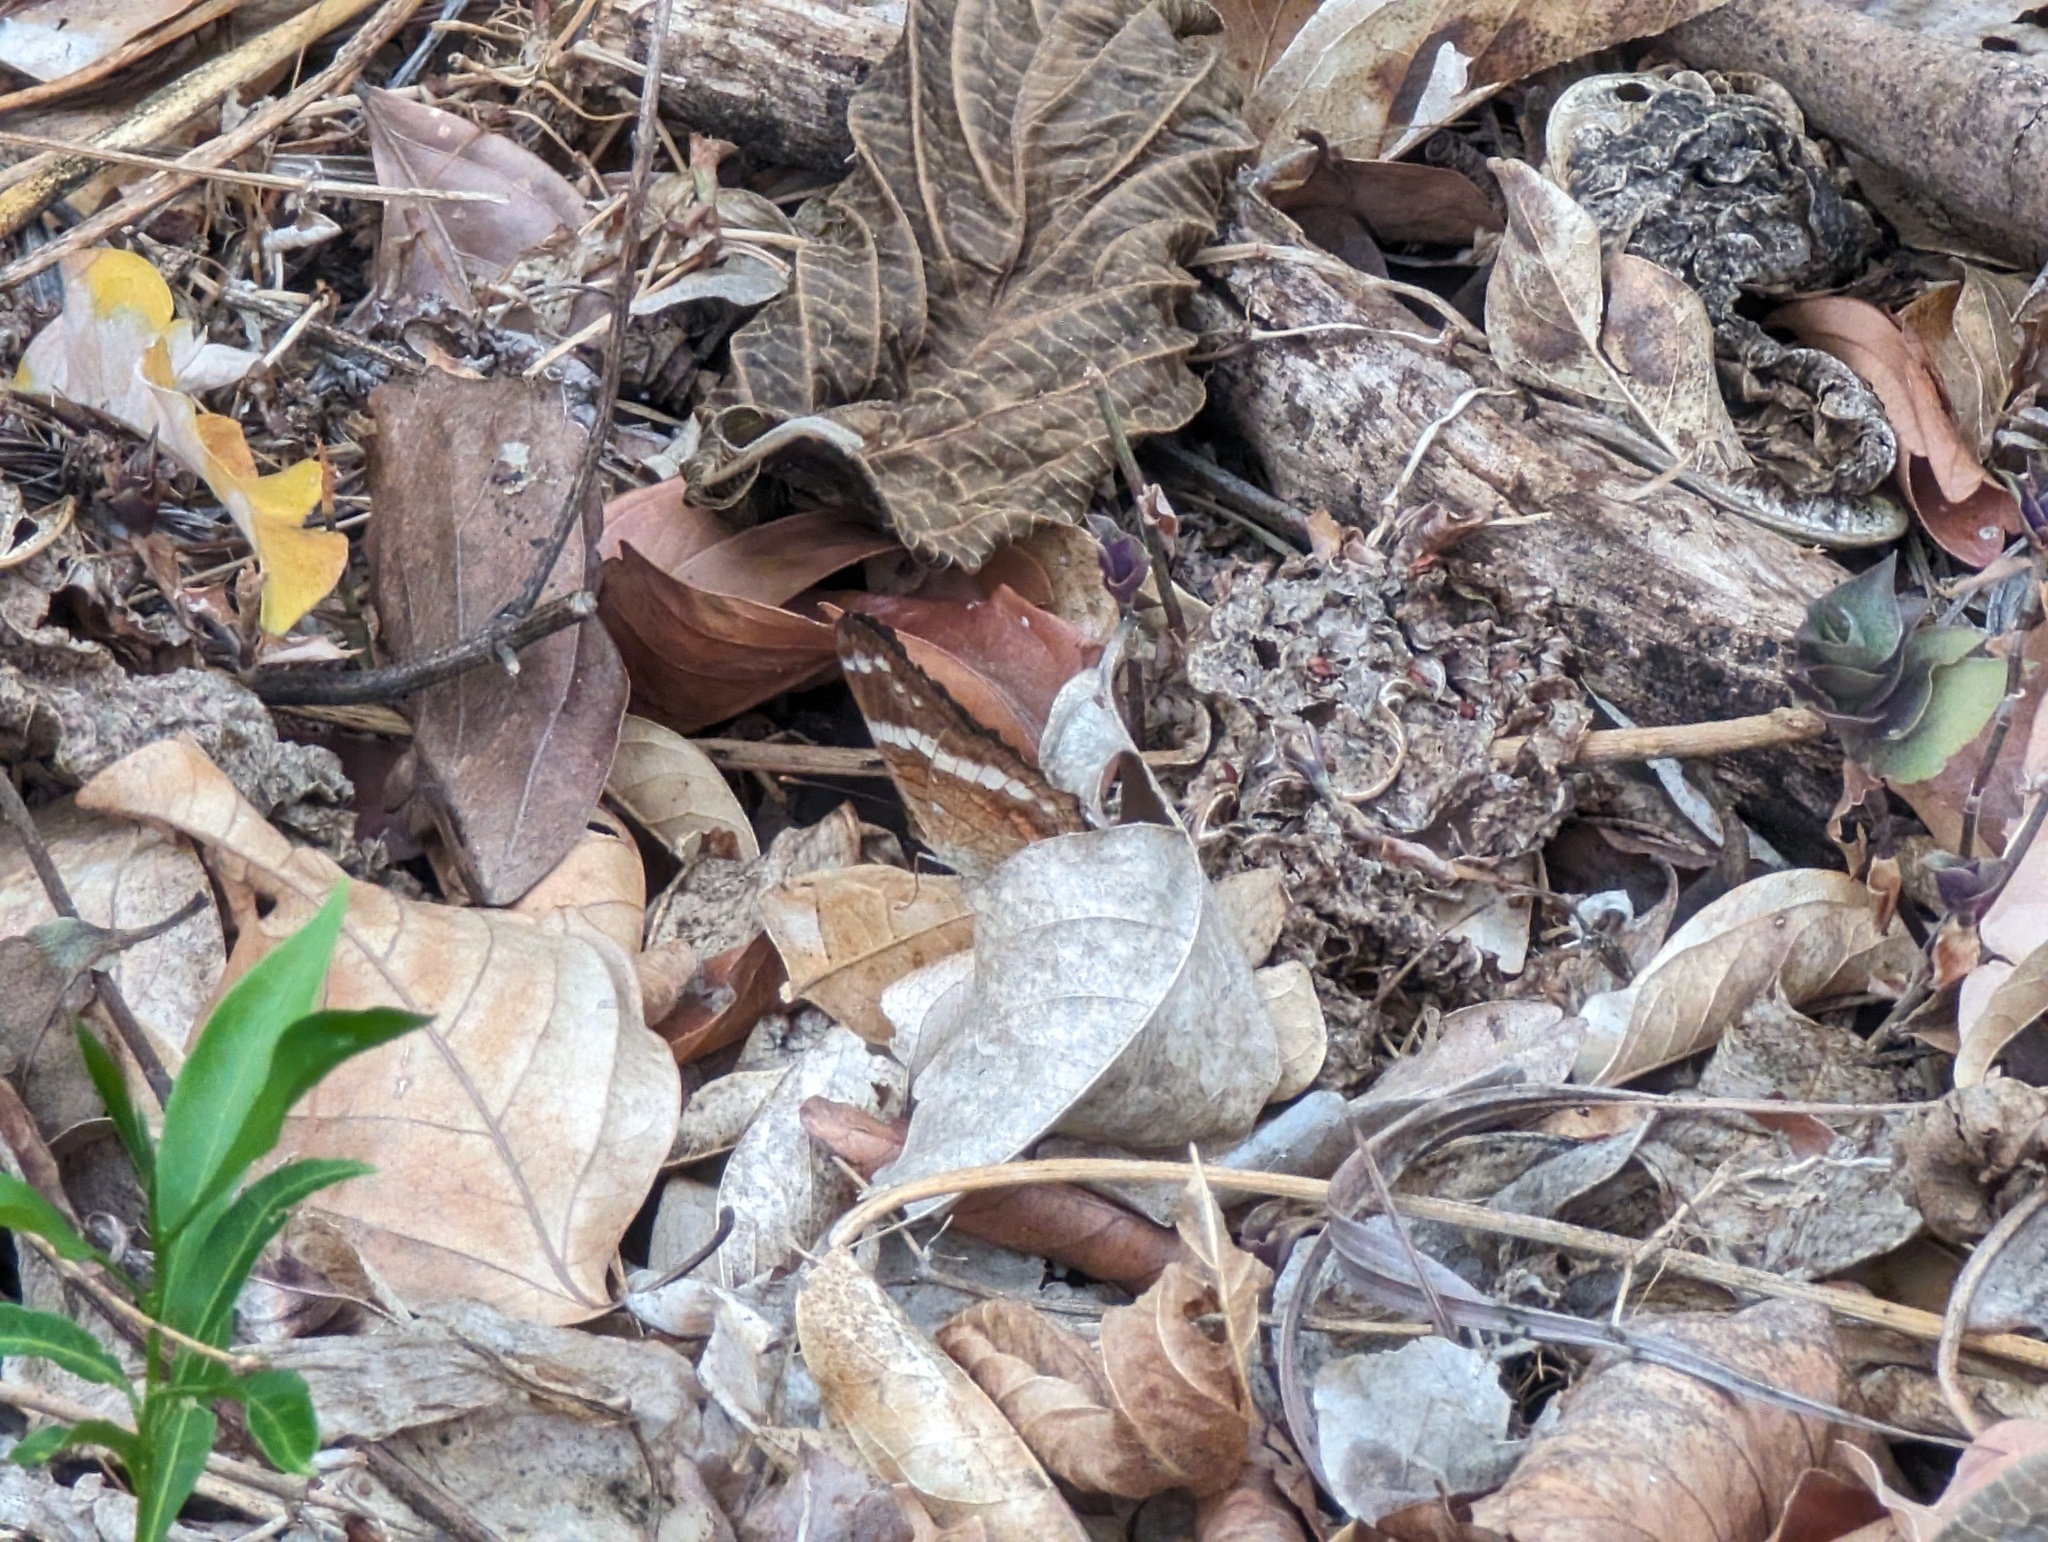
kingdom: Animalia
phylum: Arthropoda
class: Insecta
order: Lepidoptera
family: Nymphalidae
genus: Anartia
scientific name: Anartia fatima
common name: Banded peacock
